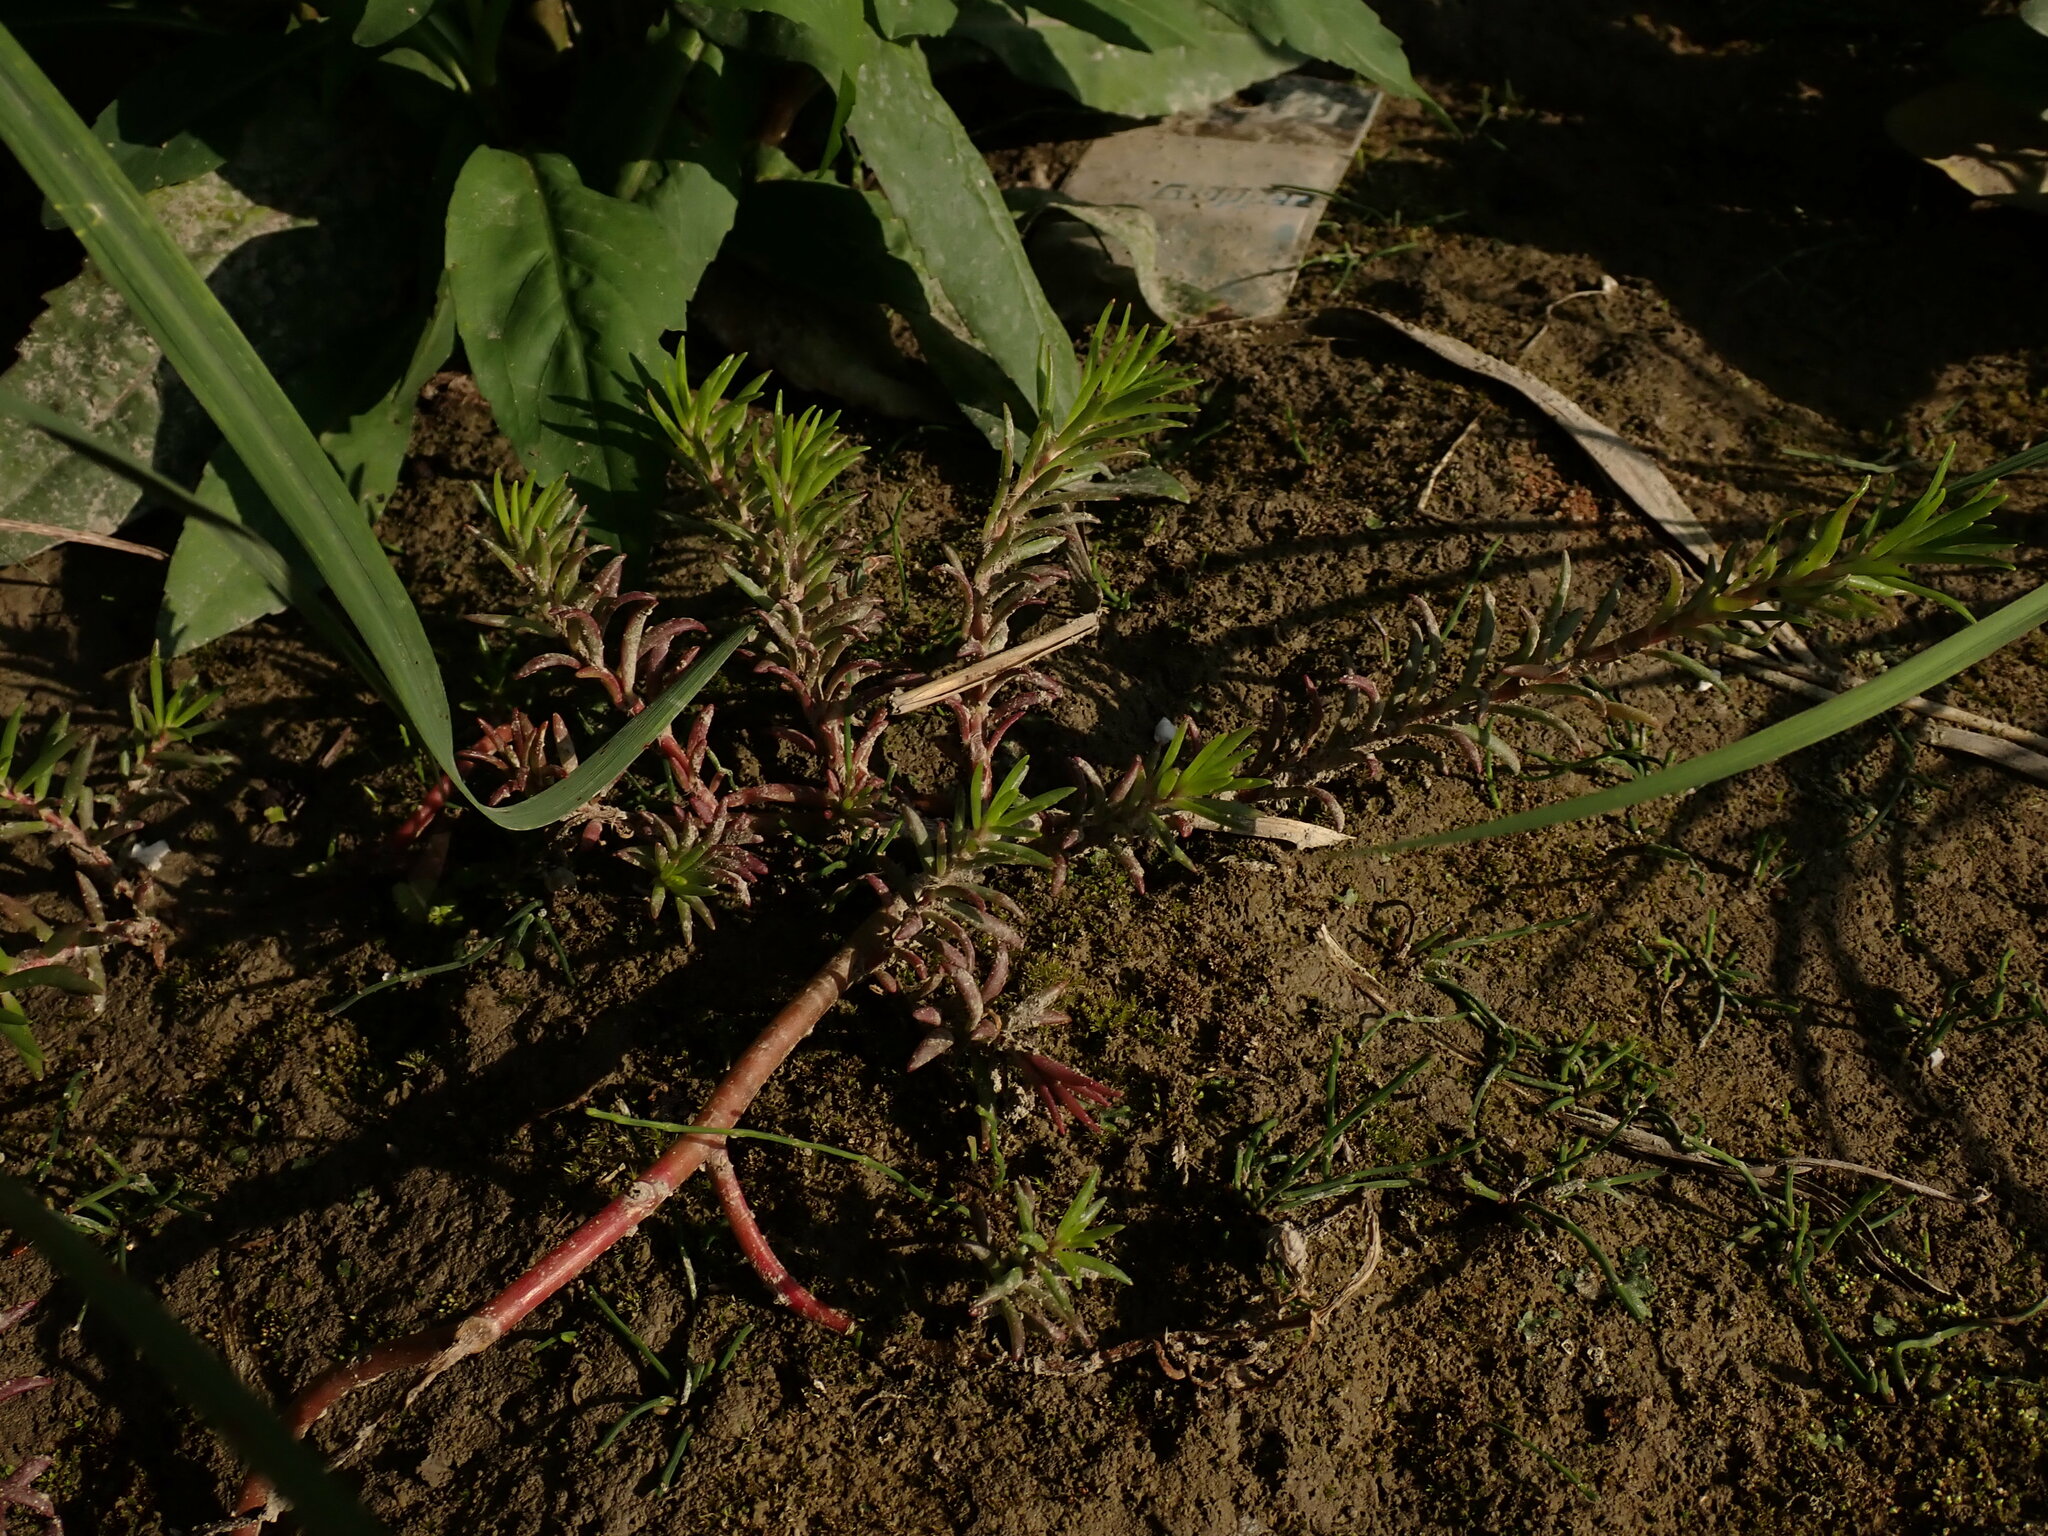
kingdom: Plantae
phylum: Tracheophyta
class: Magnoliopsida
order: Caryophyllales
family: Portulacaceae
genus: Portulaca
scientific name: Portulaca grandiflora
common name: Moss-rose
